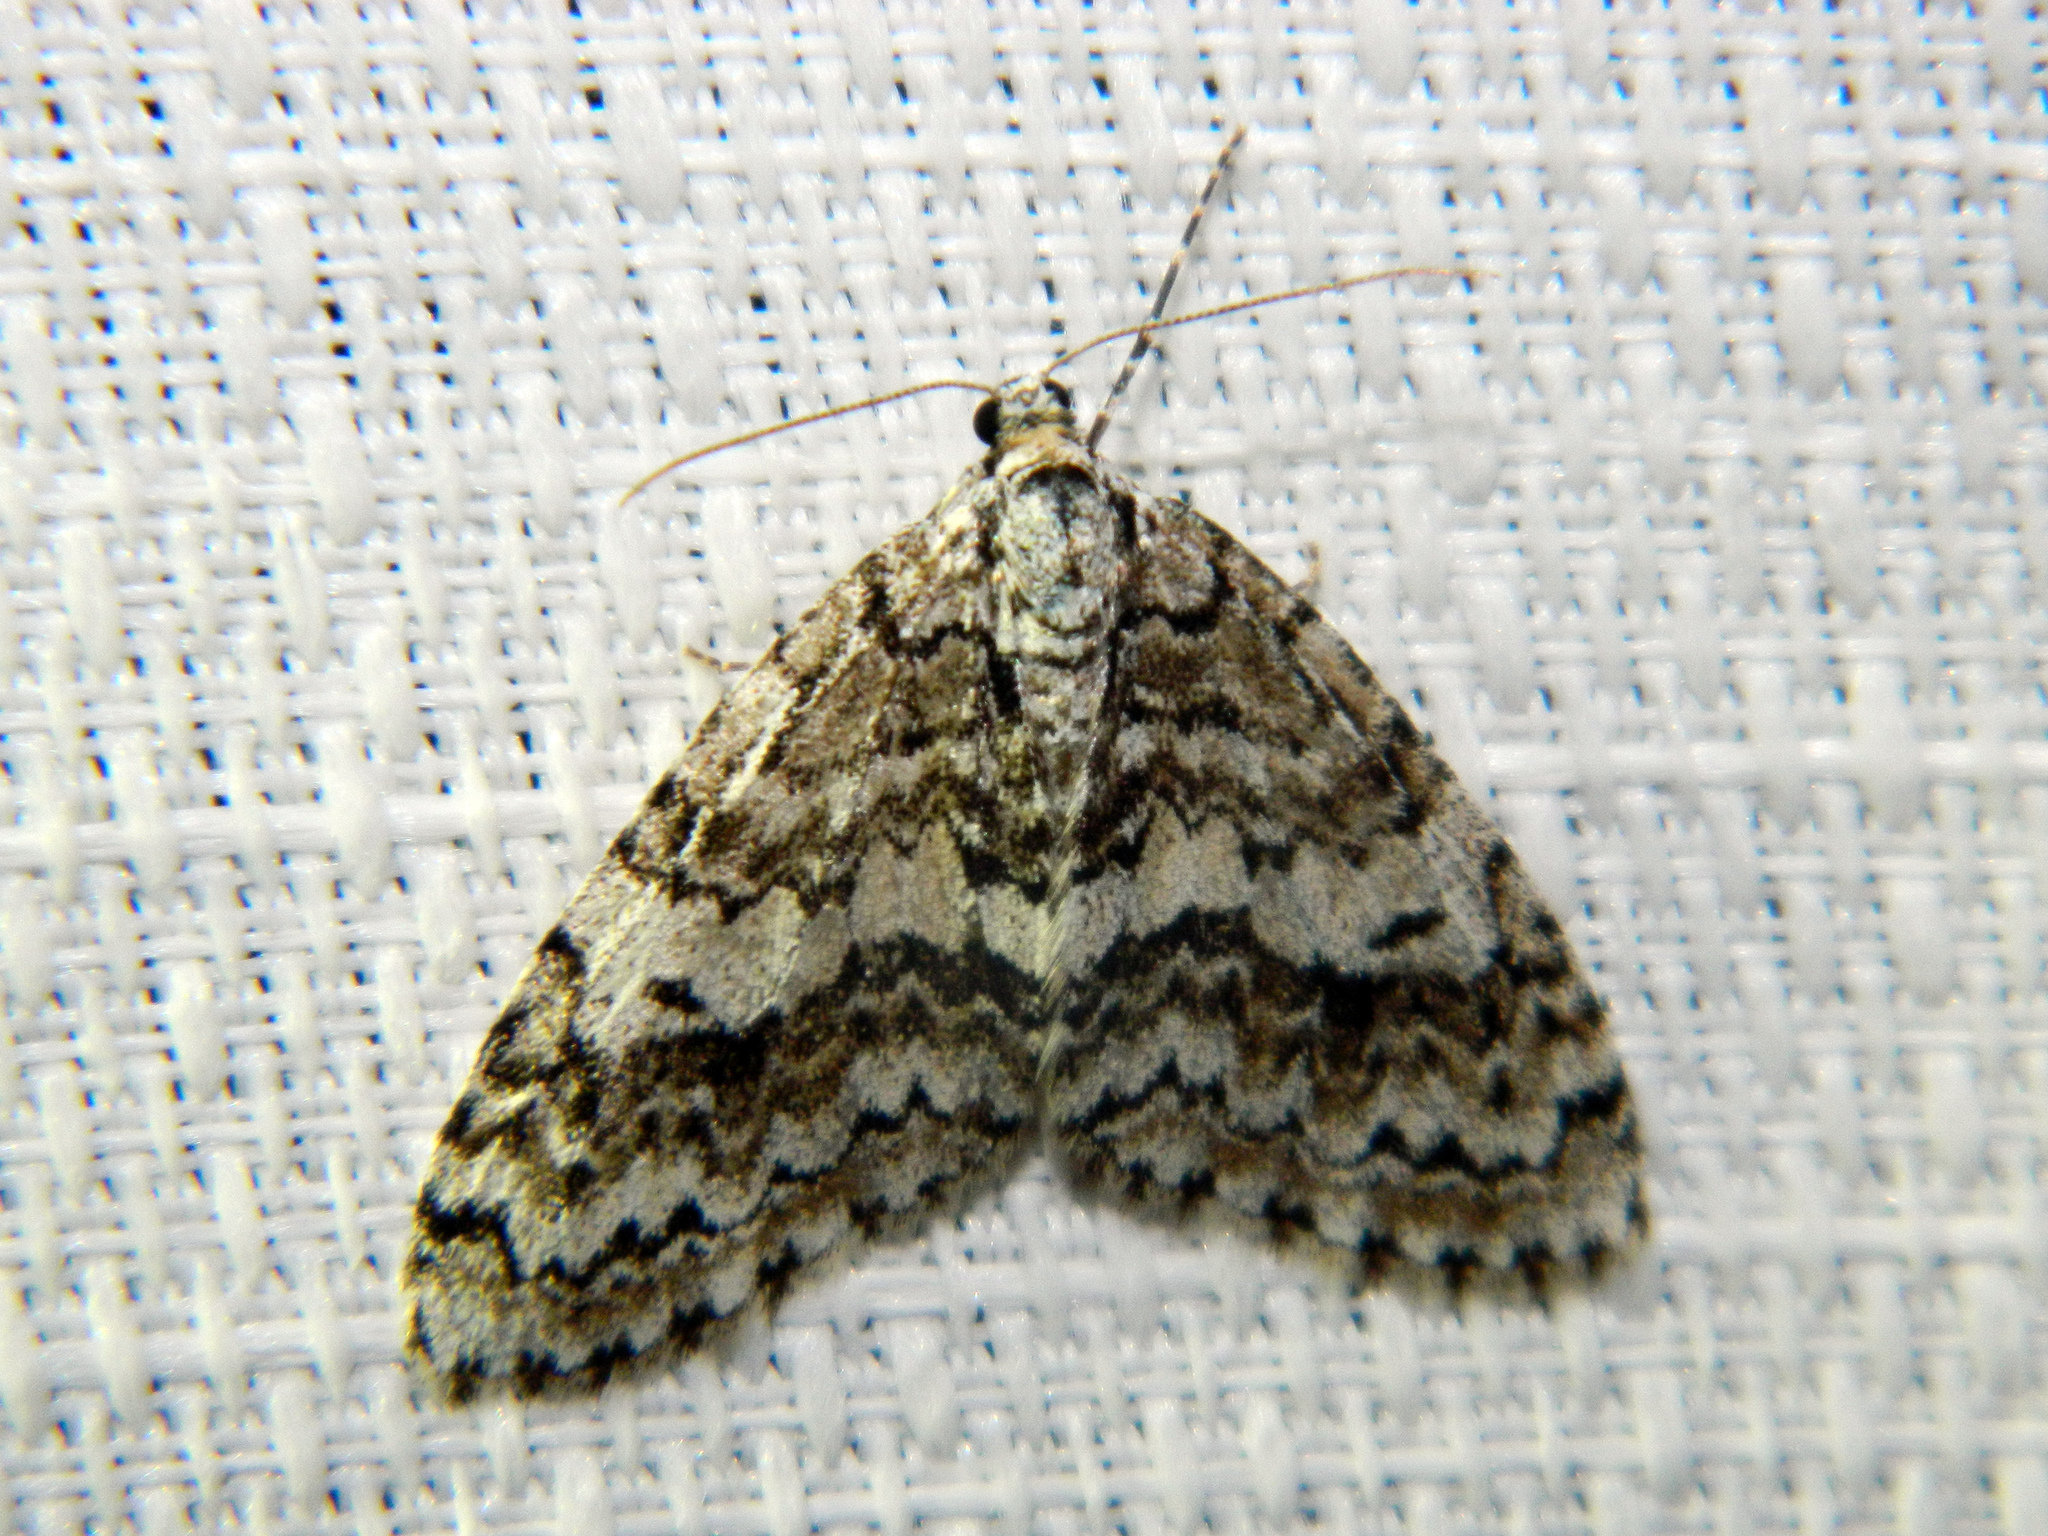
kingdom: Animalia
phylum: Arthropoda
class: Insecta
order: Lepidoptera
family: Geometridae
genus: Cladara
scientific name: Cladara atroliturata
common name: Scribbler
